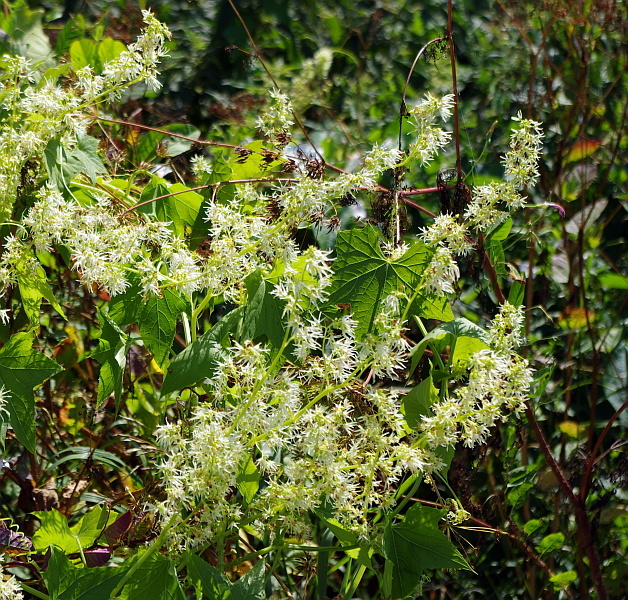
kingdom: Plantae
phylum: Tracheophyta
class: Magnoliopsida
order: Cucurbitales
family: Cucurbitaceae
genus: Echinocystis
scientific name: Echinocystis lobata
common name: Wild cucumber
